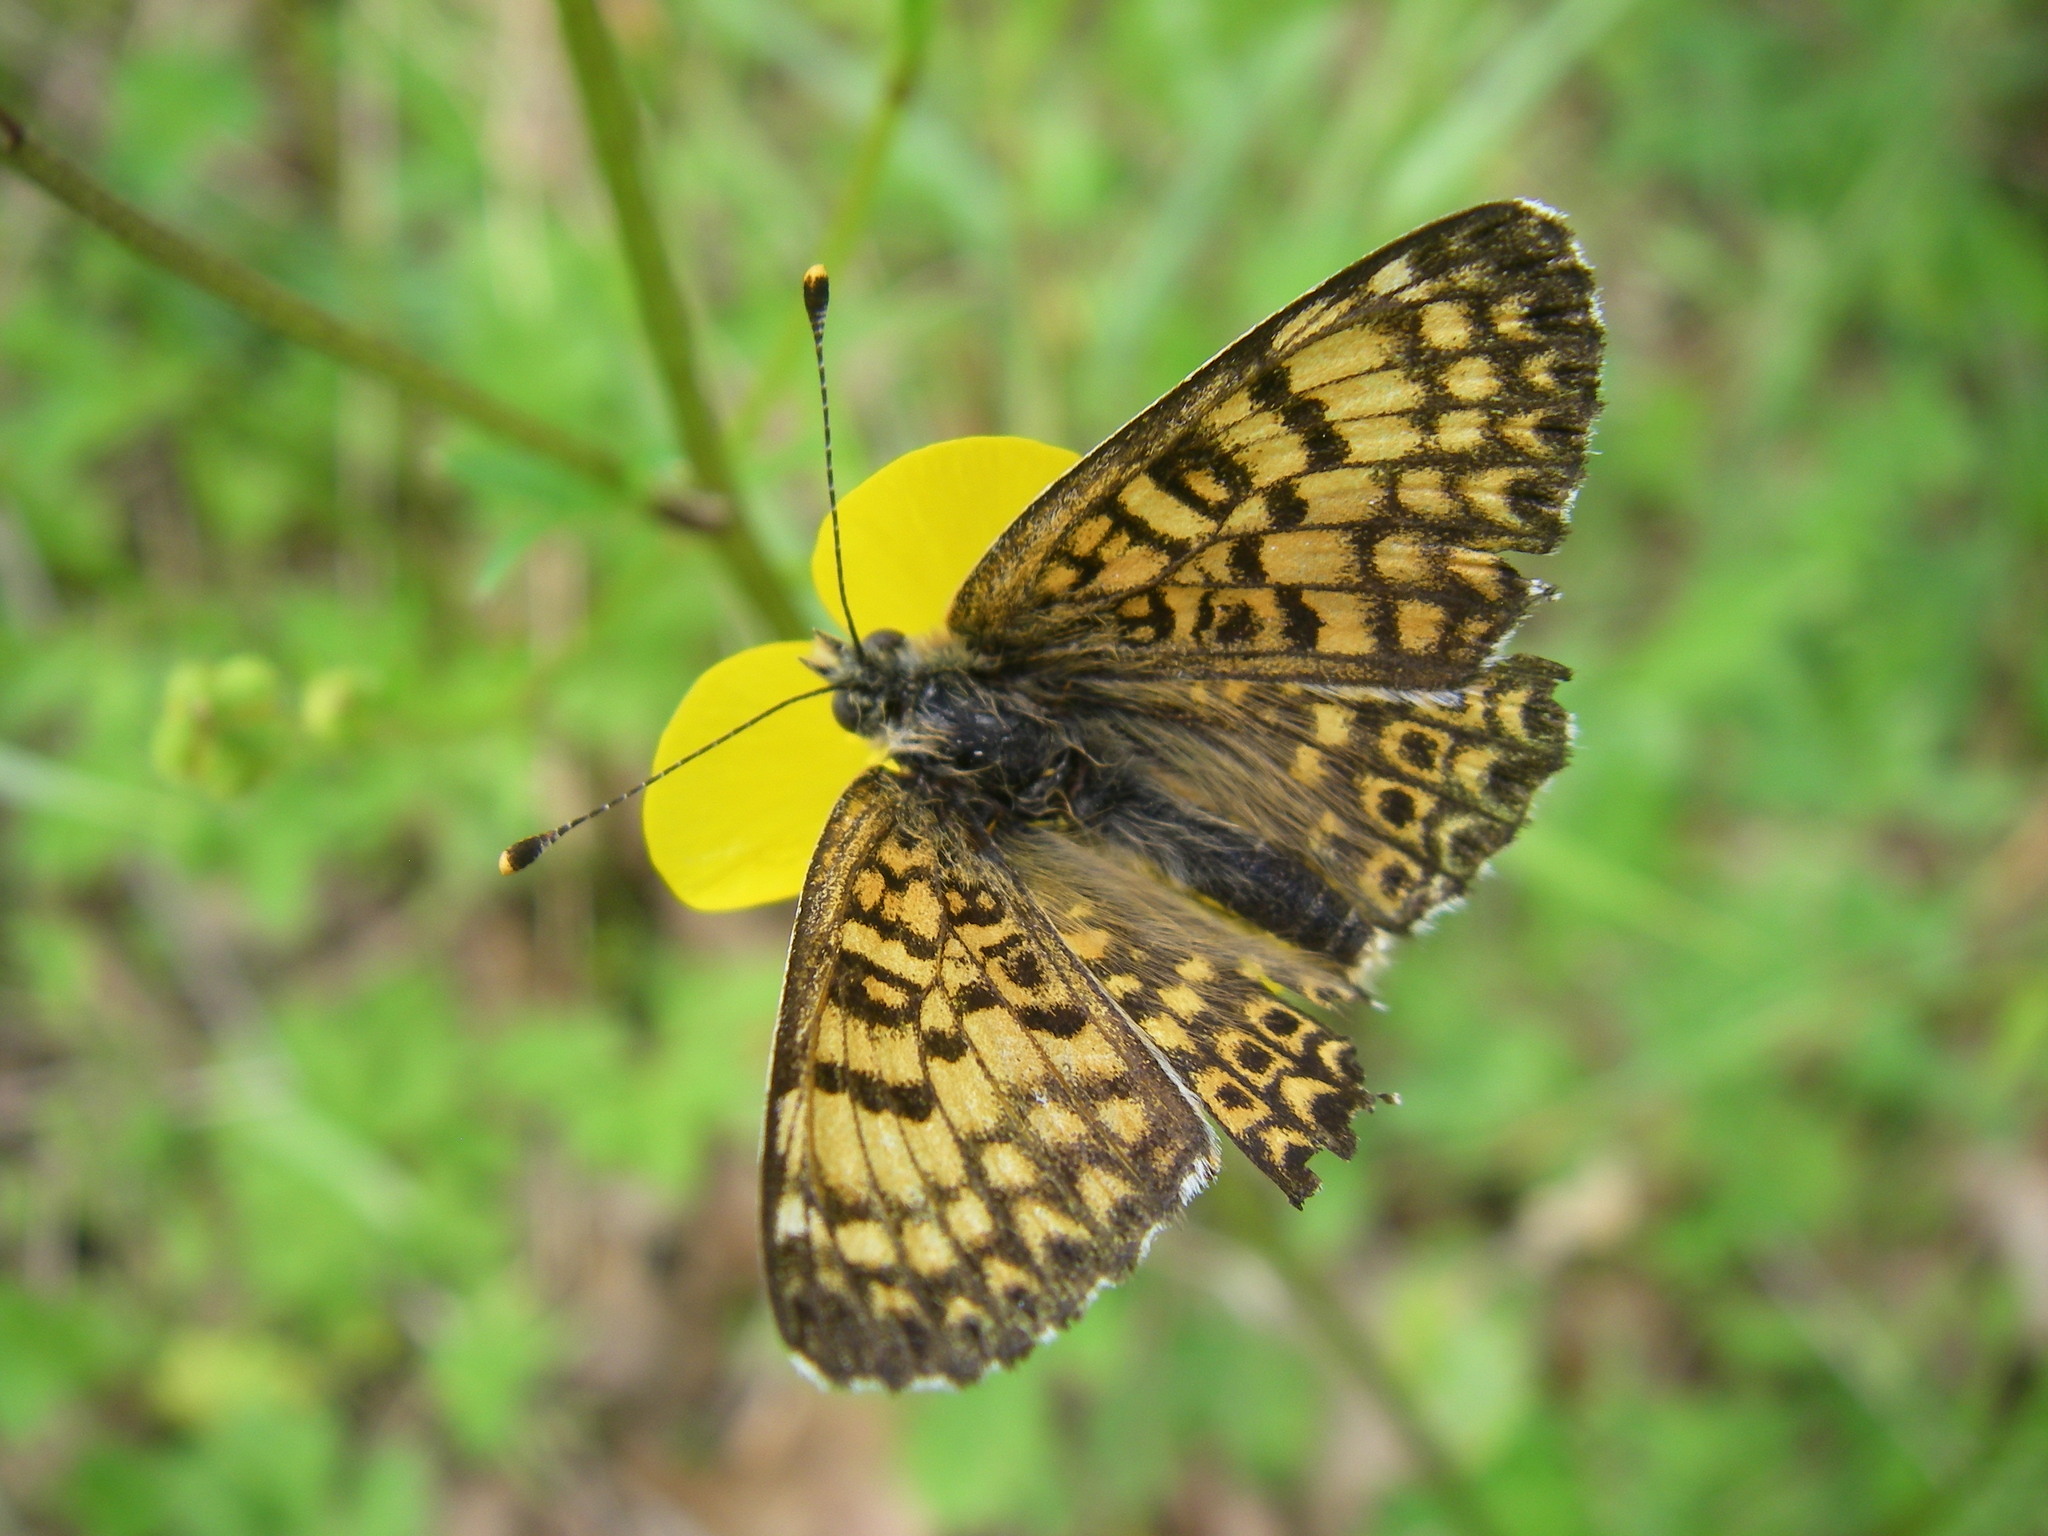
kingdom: Animalia
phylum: Arthropoda
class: Insecta
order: Lepidoptera
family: Nymphalidae
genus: Melitaea
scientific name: Melitaea cinxia
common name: Glanville fritillary
